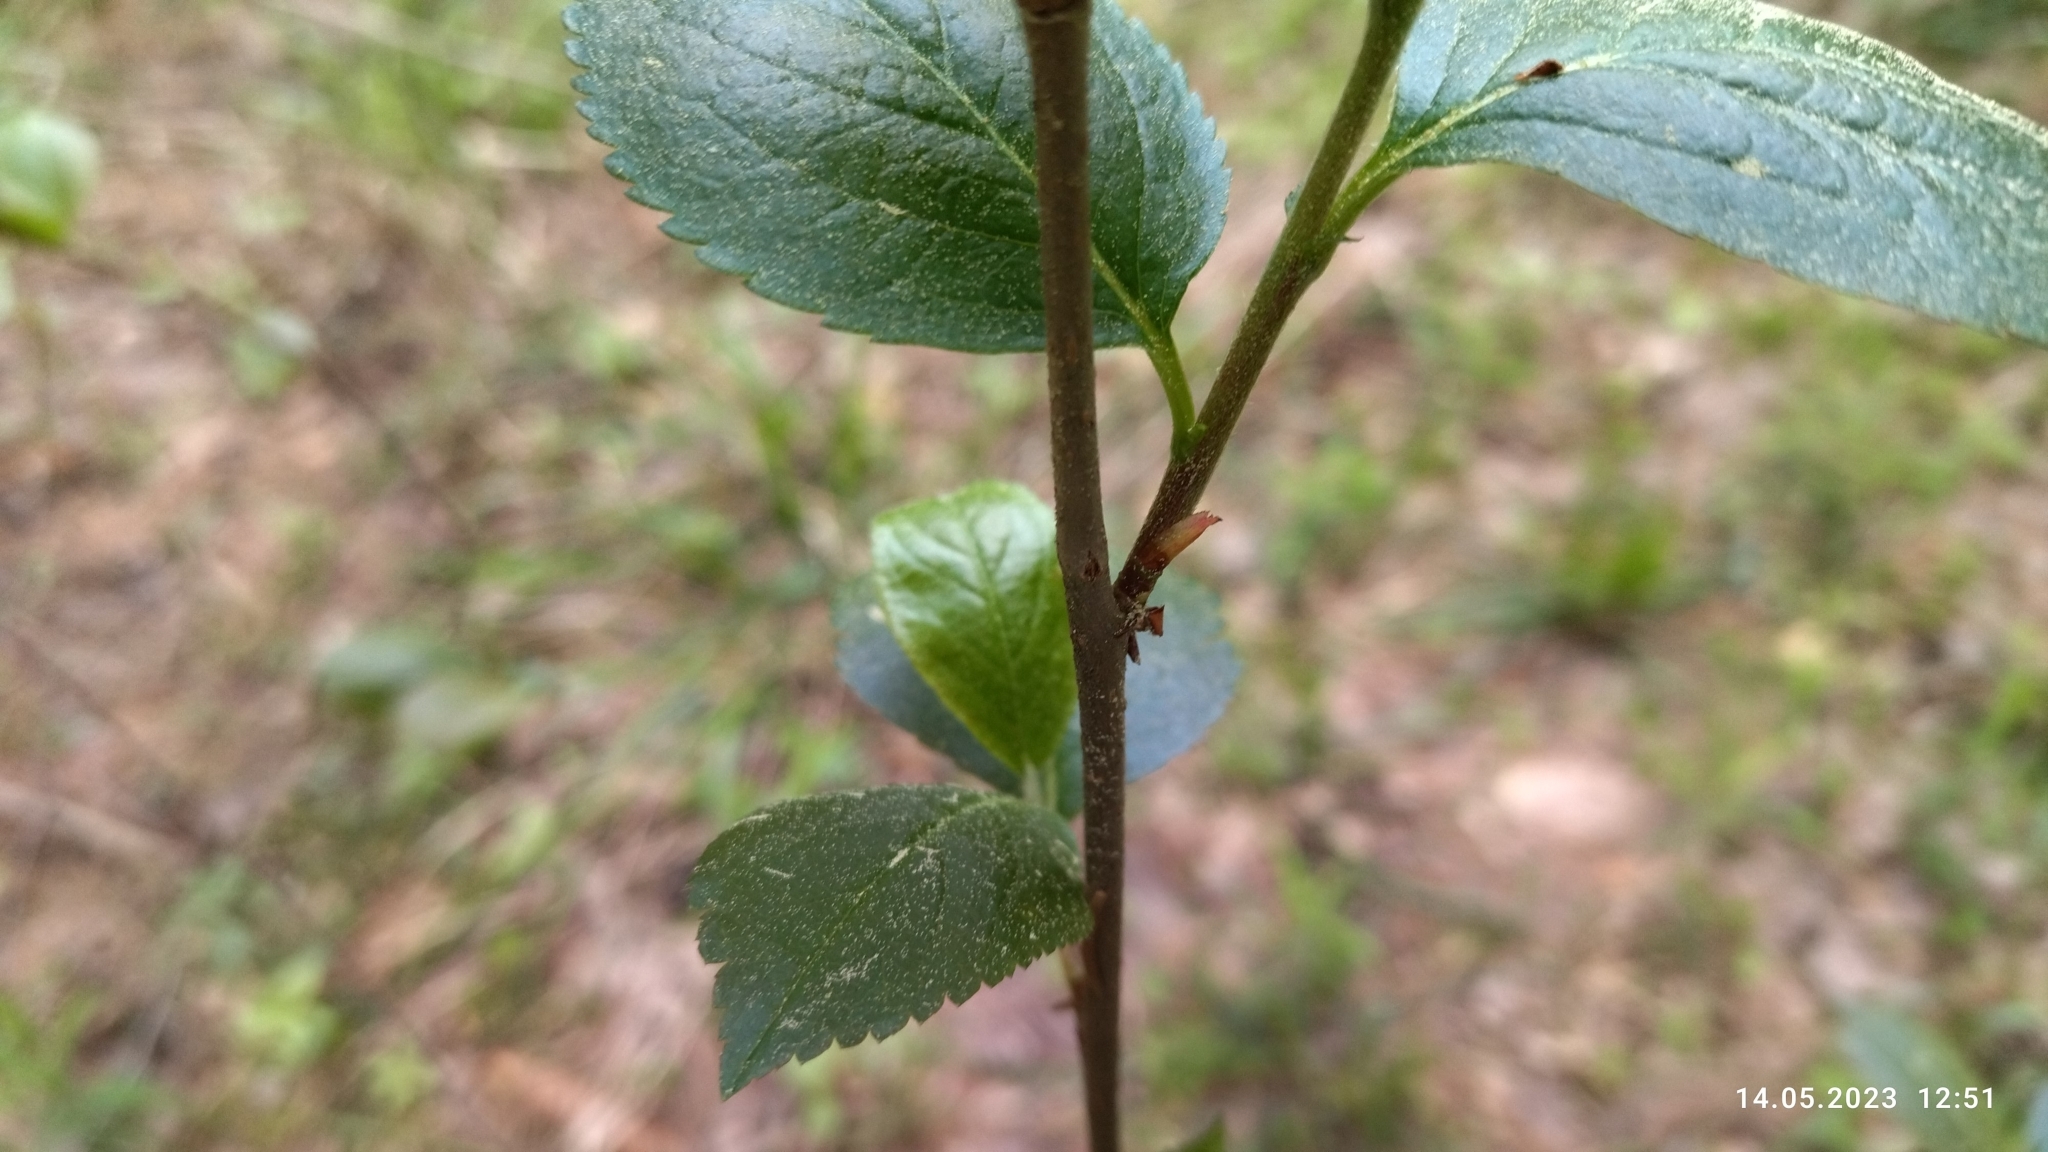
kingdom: Plantae
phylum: Tracheophyta
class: Magnoliopsida
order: Rosales
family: Rosaceae
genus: Sorbaronia
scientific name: Sorbaronia arsenii
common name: Arsène's mountain-ash
